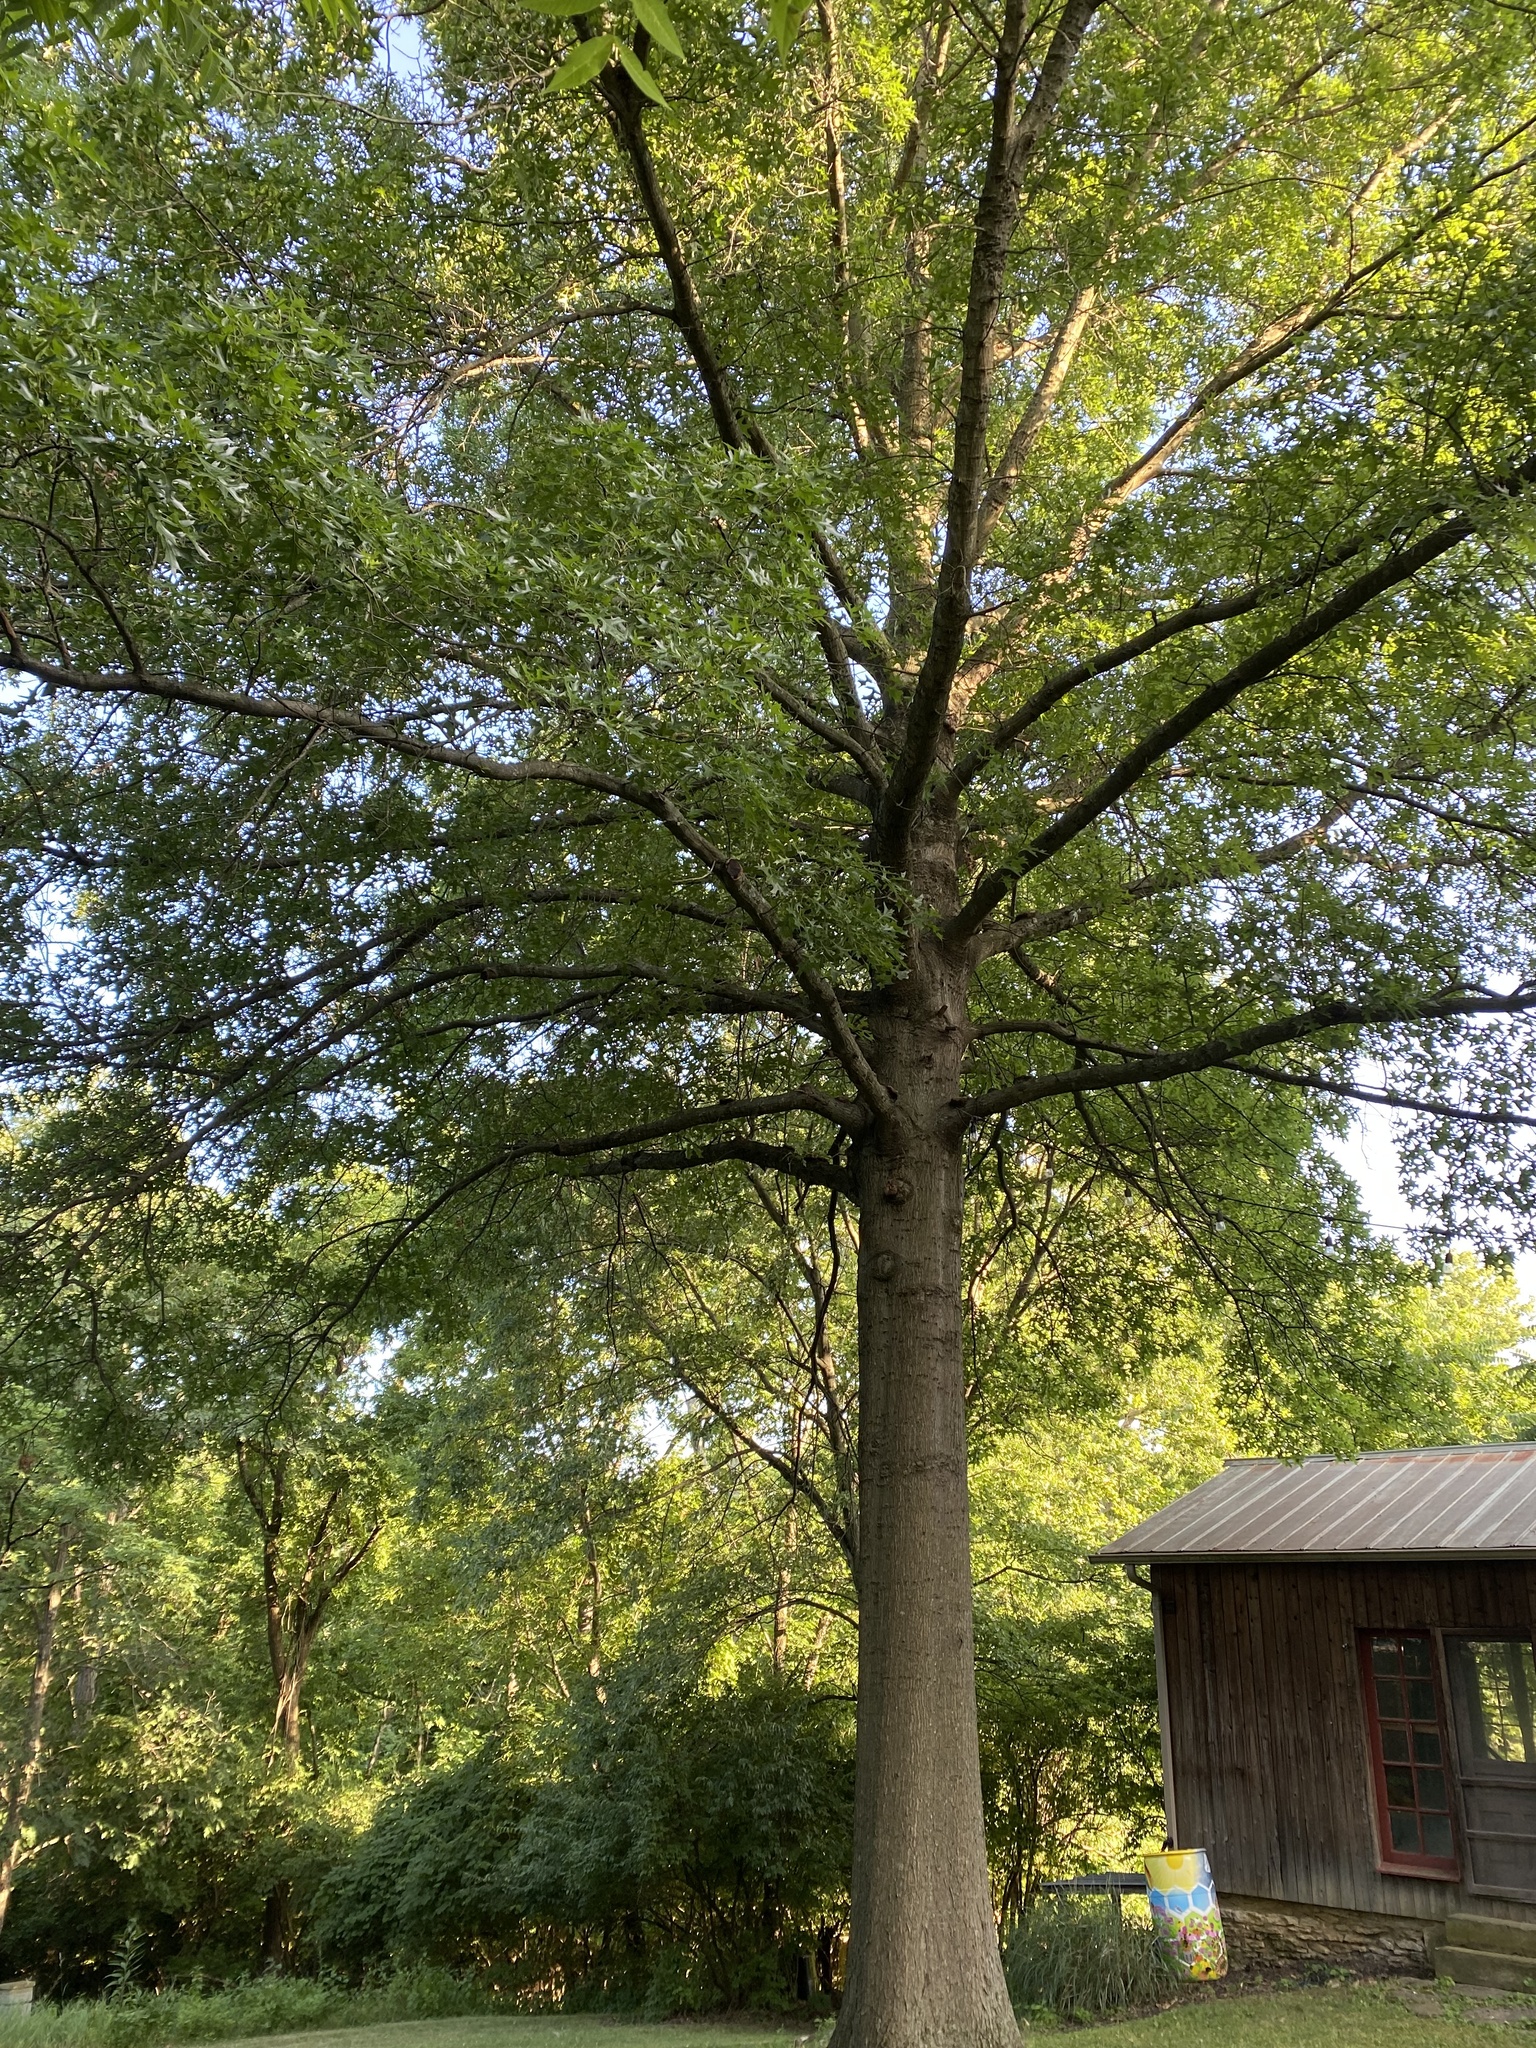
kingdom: Plantae
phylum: Tracheophyta
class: Magnoliopsida
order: Fagales
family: Fagaceae
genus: Quercus
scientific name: Quercus palustris
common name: Pin oak
